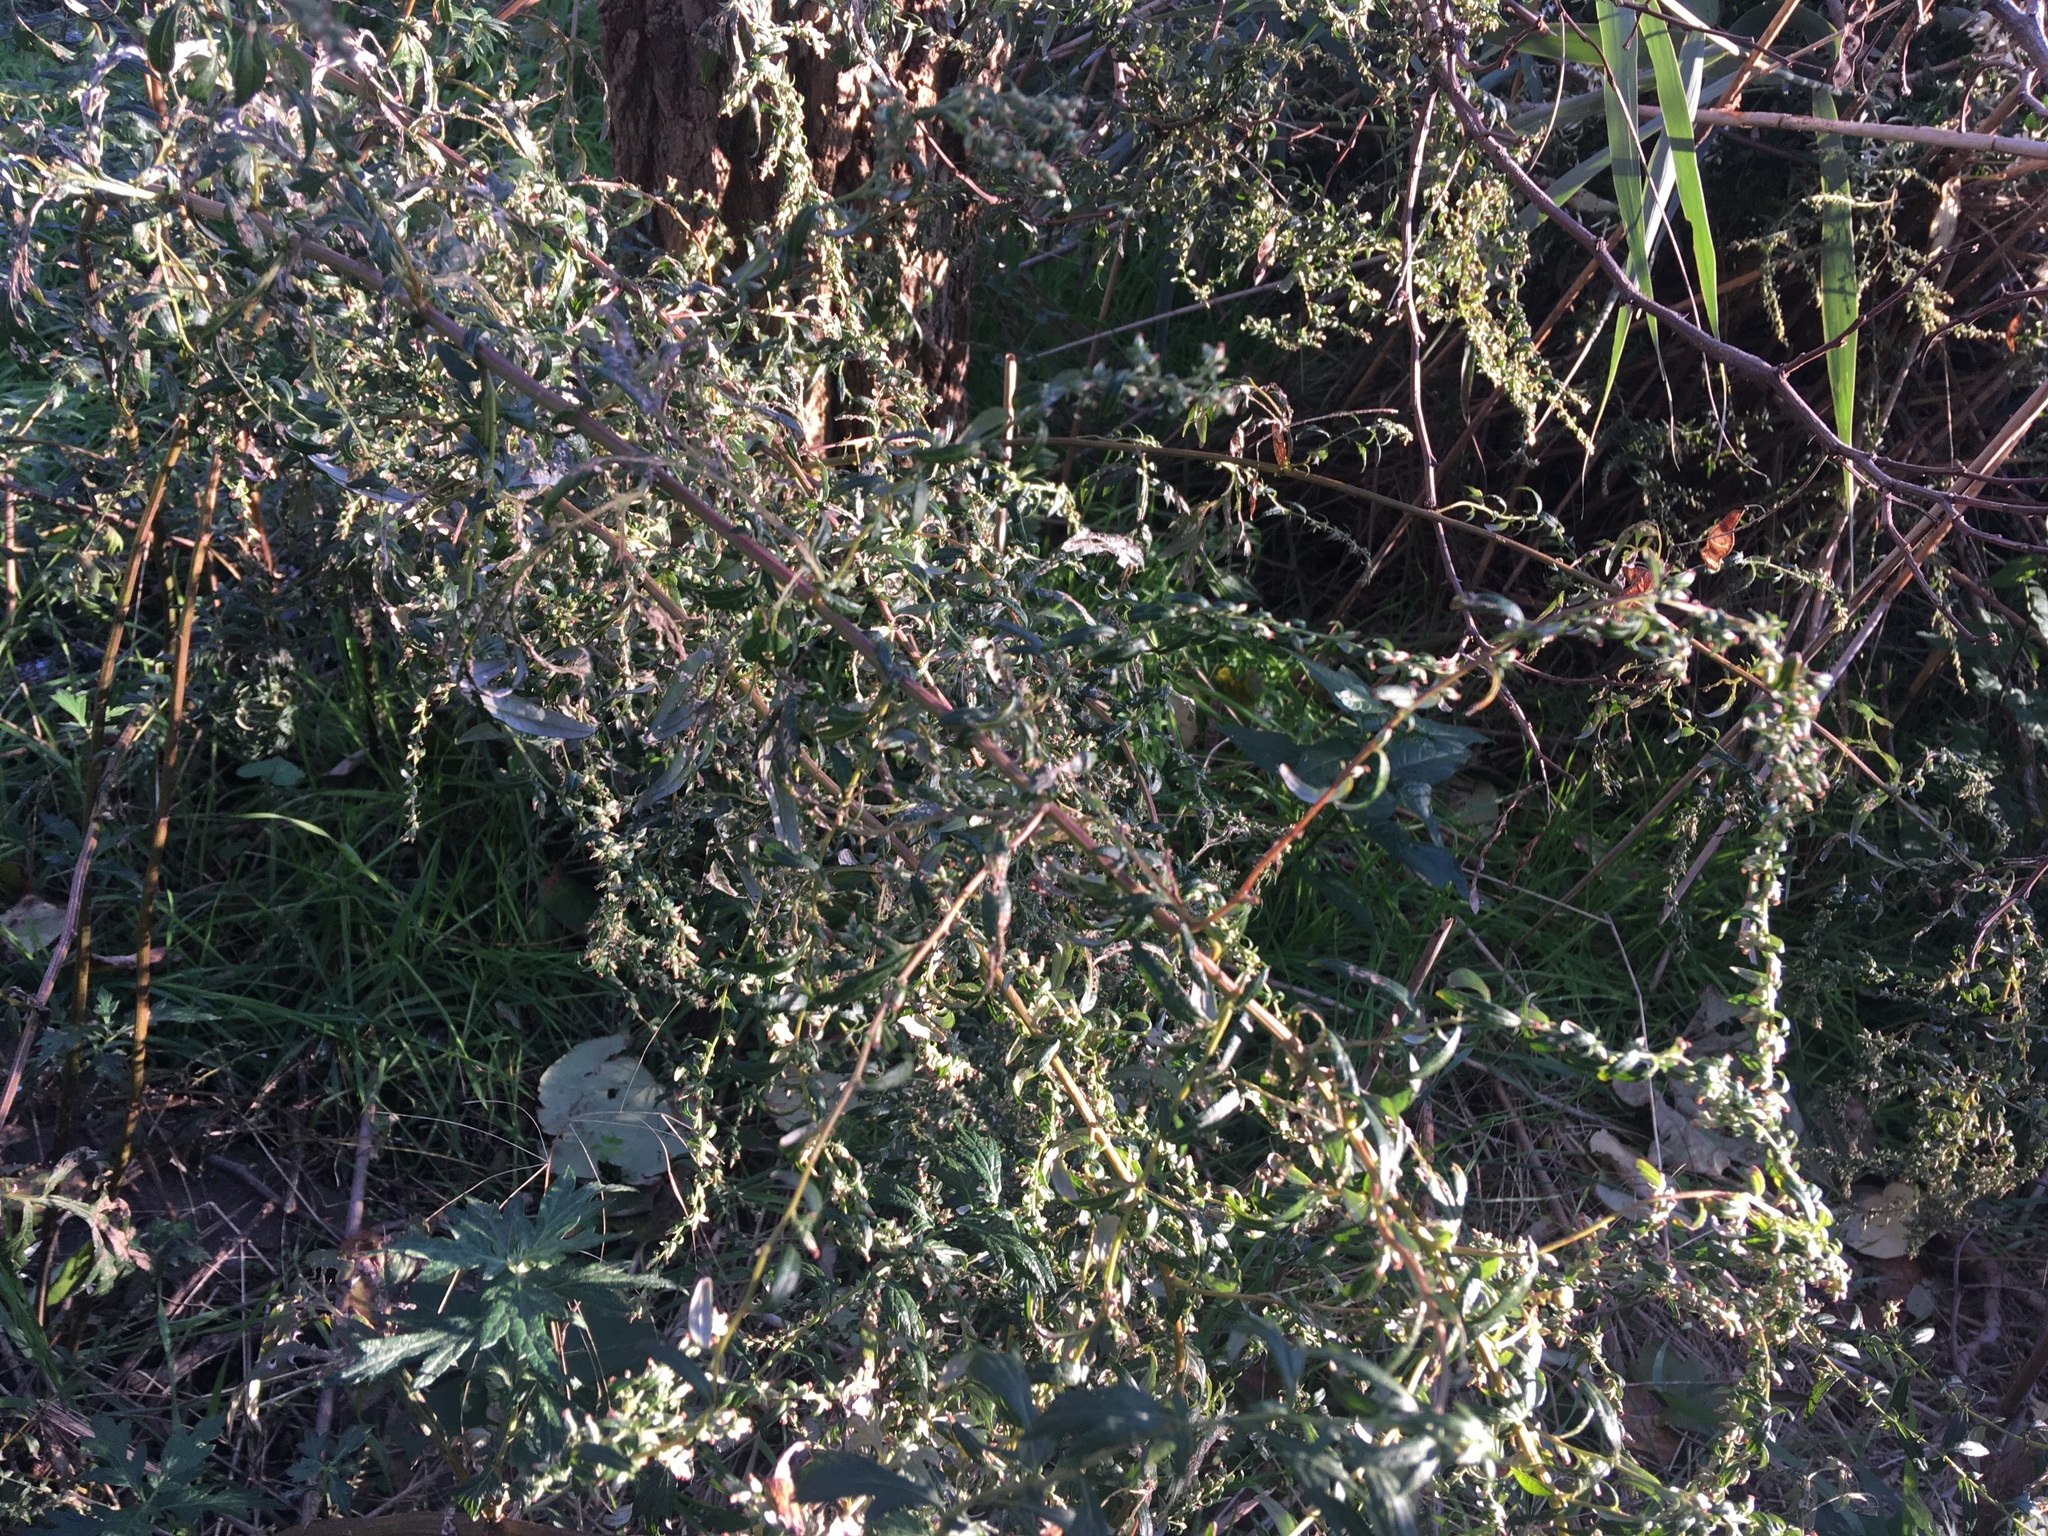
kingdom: Plantae
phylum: Tracheophyta
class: Magnoliopsida
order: Asterales
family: Asteraceae
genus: Artemisia
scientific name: Artemisia vulgaris
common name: Mugwort
